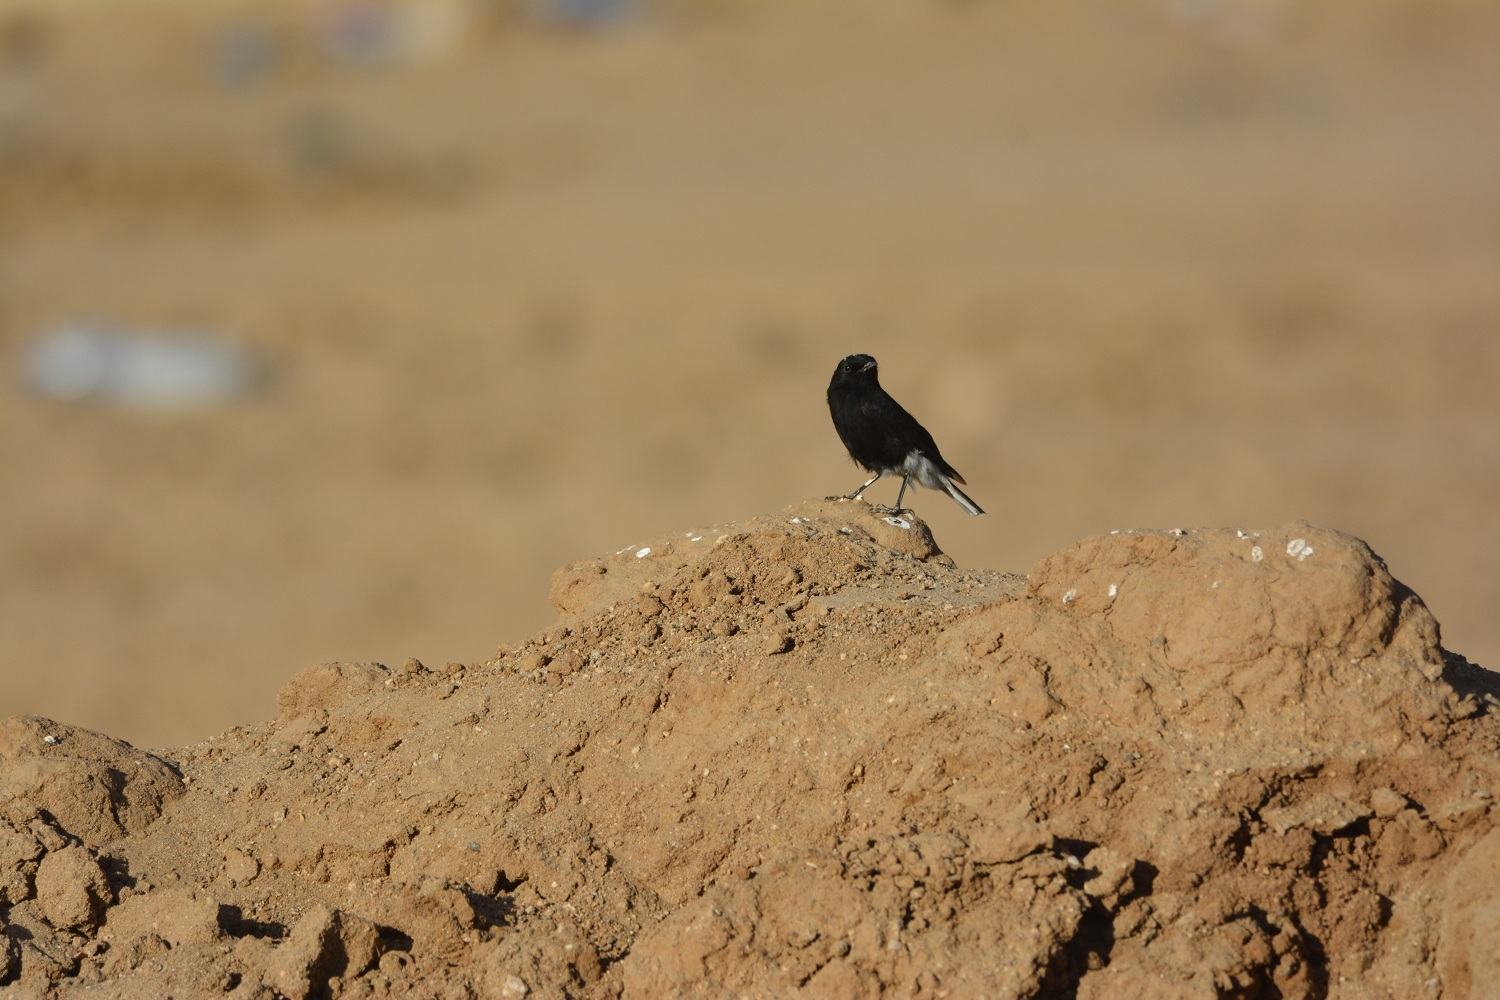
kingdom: Animalia
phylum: Chordata
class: Aves
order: Passeriformes
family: Muscicapidae
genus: Oenanthe
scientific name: Oenanthe leucopyga
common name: White-crowned wheatear
